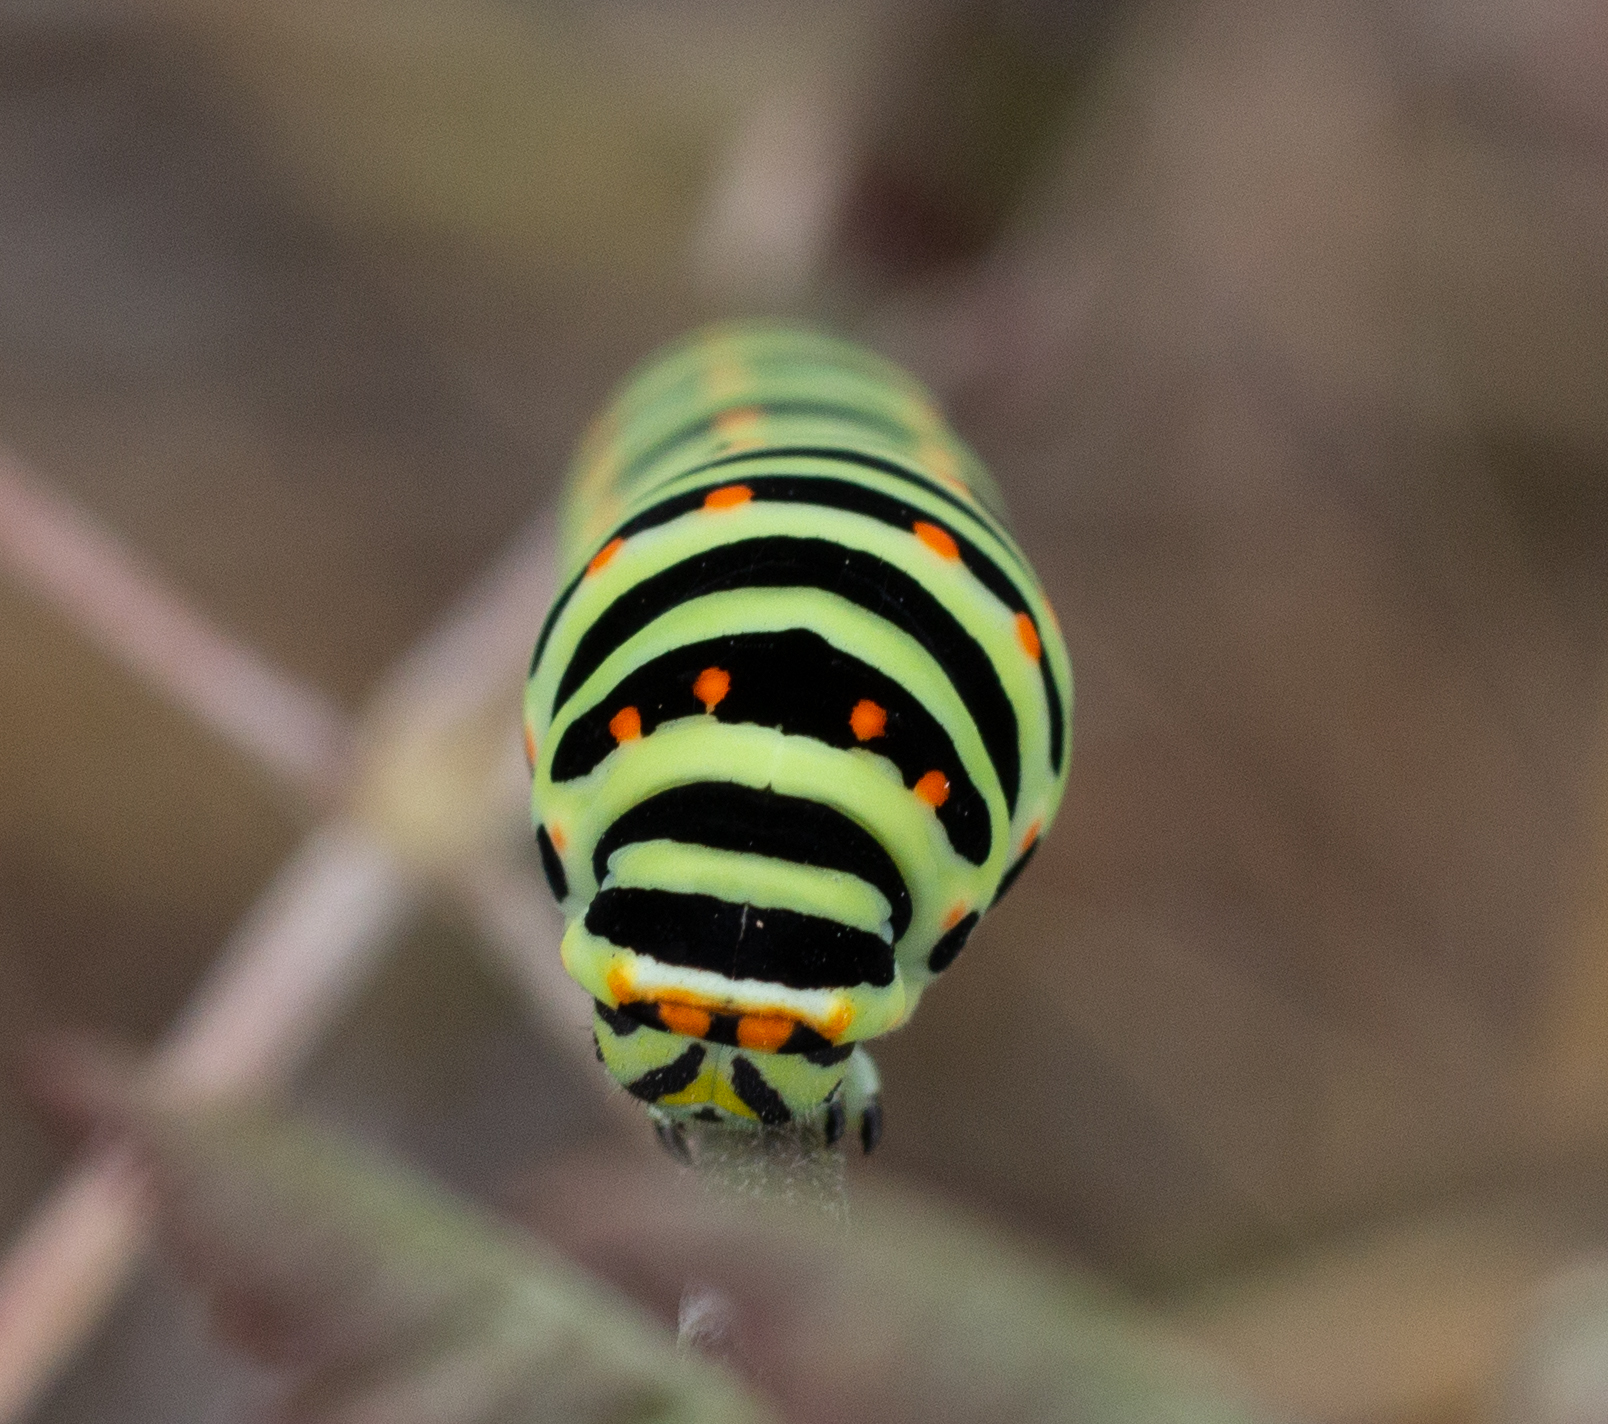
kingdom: Animalia
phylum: Arthropoda
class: Insecta
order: Lepidoptera
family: Papilionidae
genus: Papilio
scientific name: Papilio machaon
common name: Swallowtail
